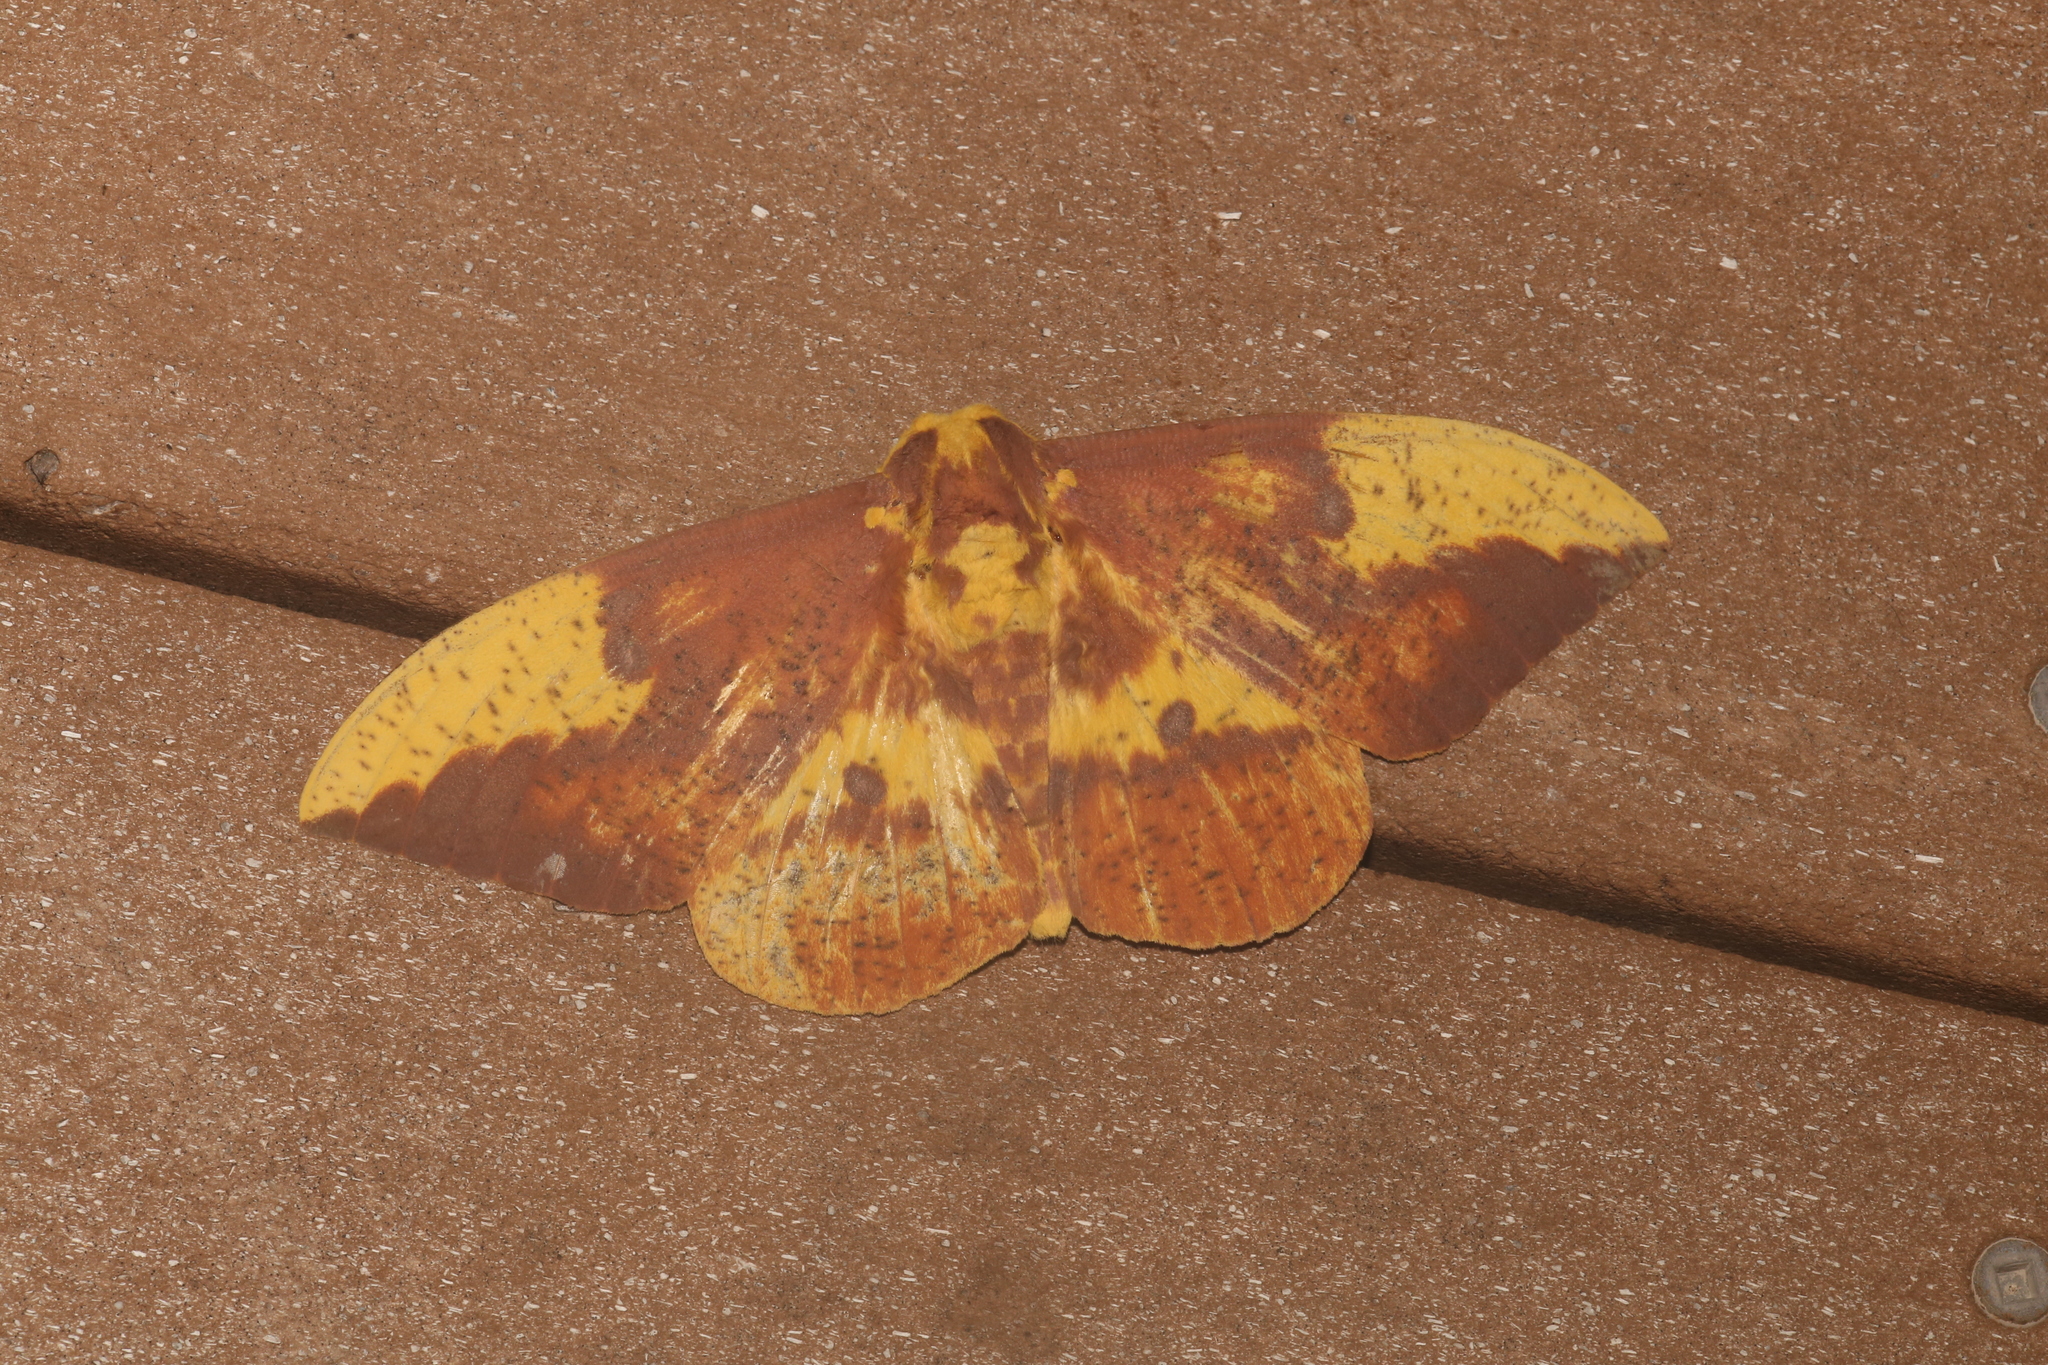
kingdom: Animalia
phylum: Arthropoda
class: Insecta
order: Lepidoptera
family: Saturniidae
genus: Eacles
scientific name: Eacles imperialis
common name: Imperial moth
